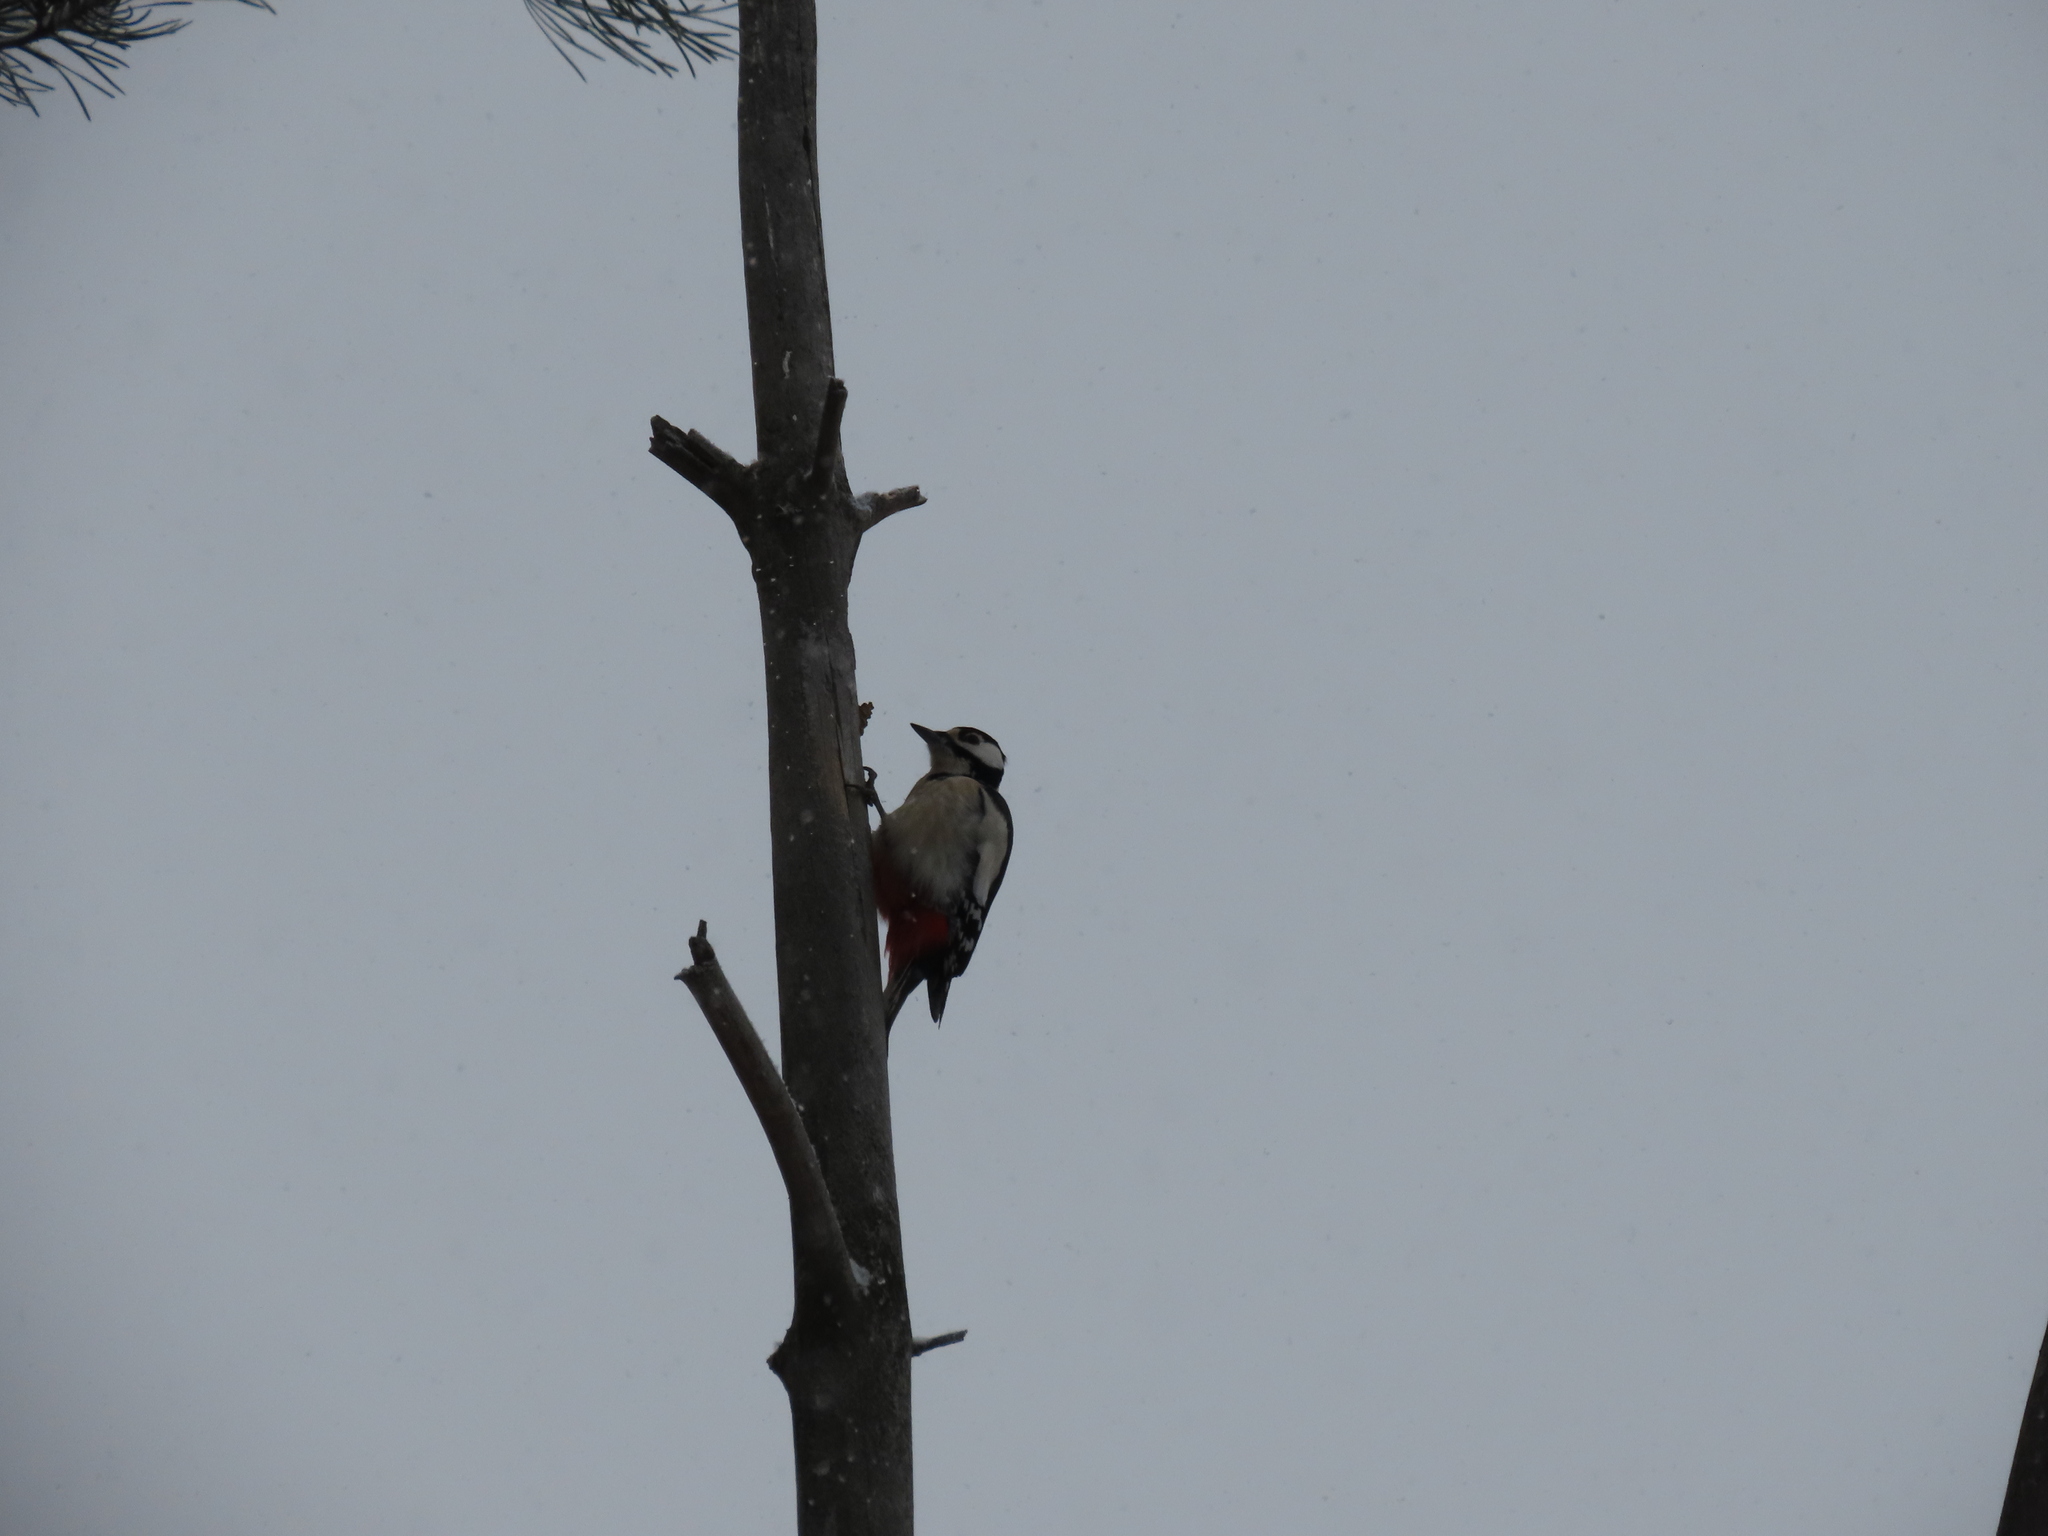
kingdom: Animalia
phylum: Chordata
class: Aves
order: Piciformes
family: Picidae
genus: Dendrocopos
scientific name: Dendrocopos major
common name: Great spotted woodpecker
